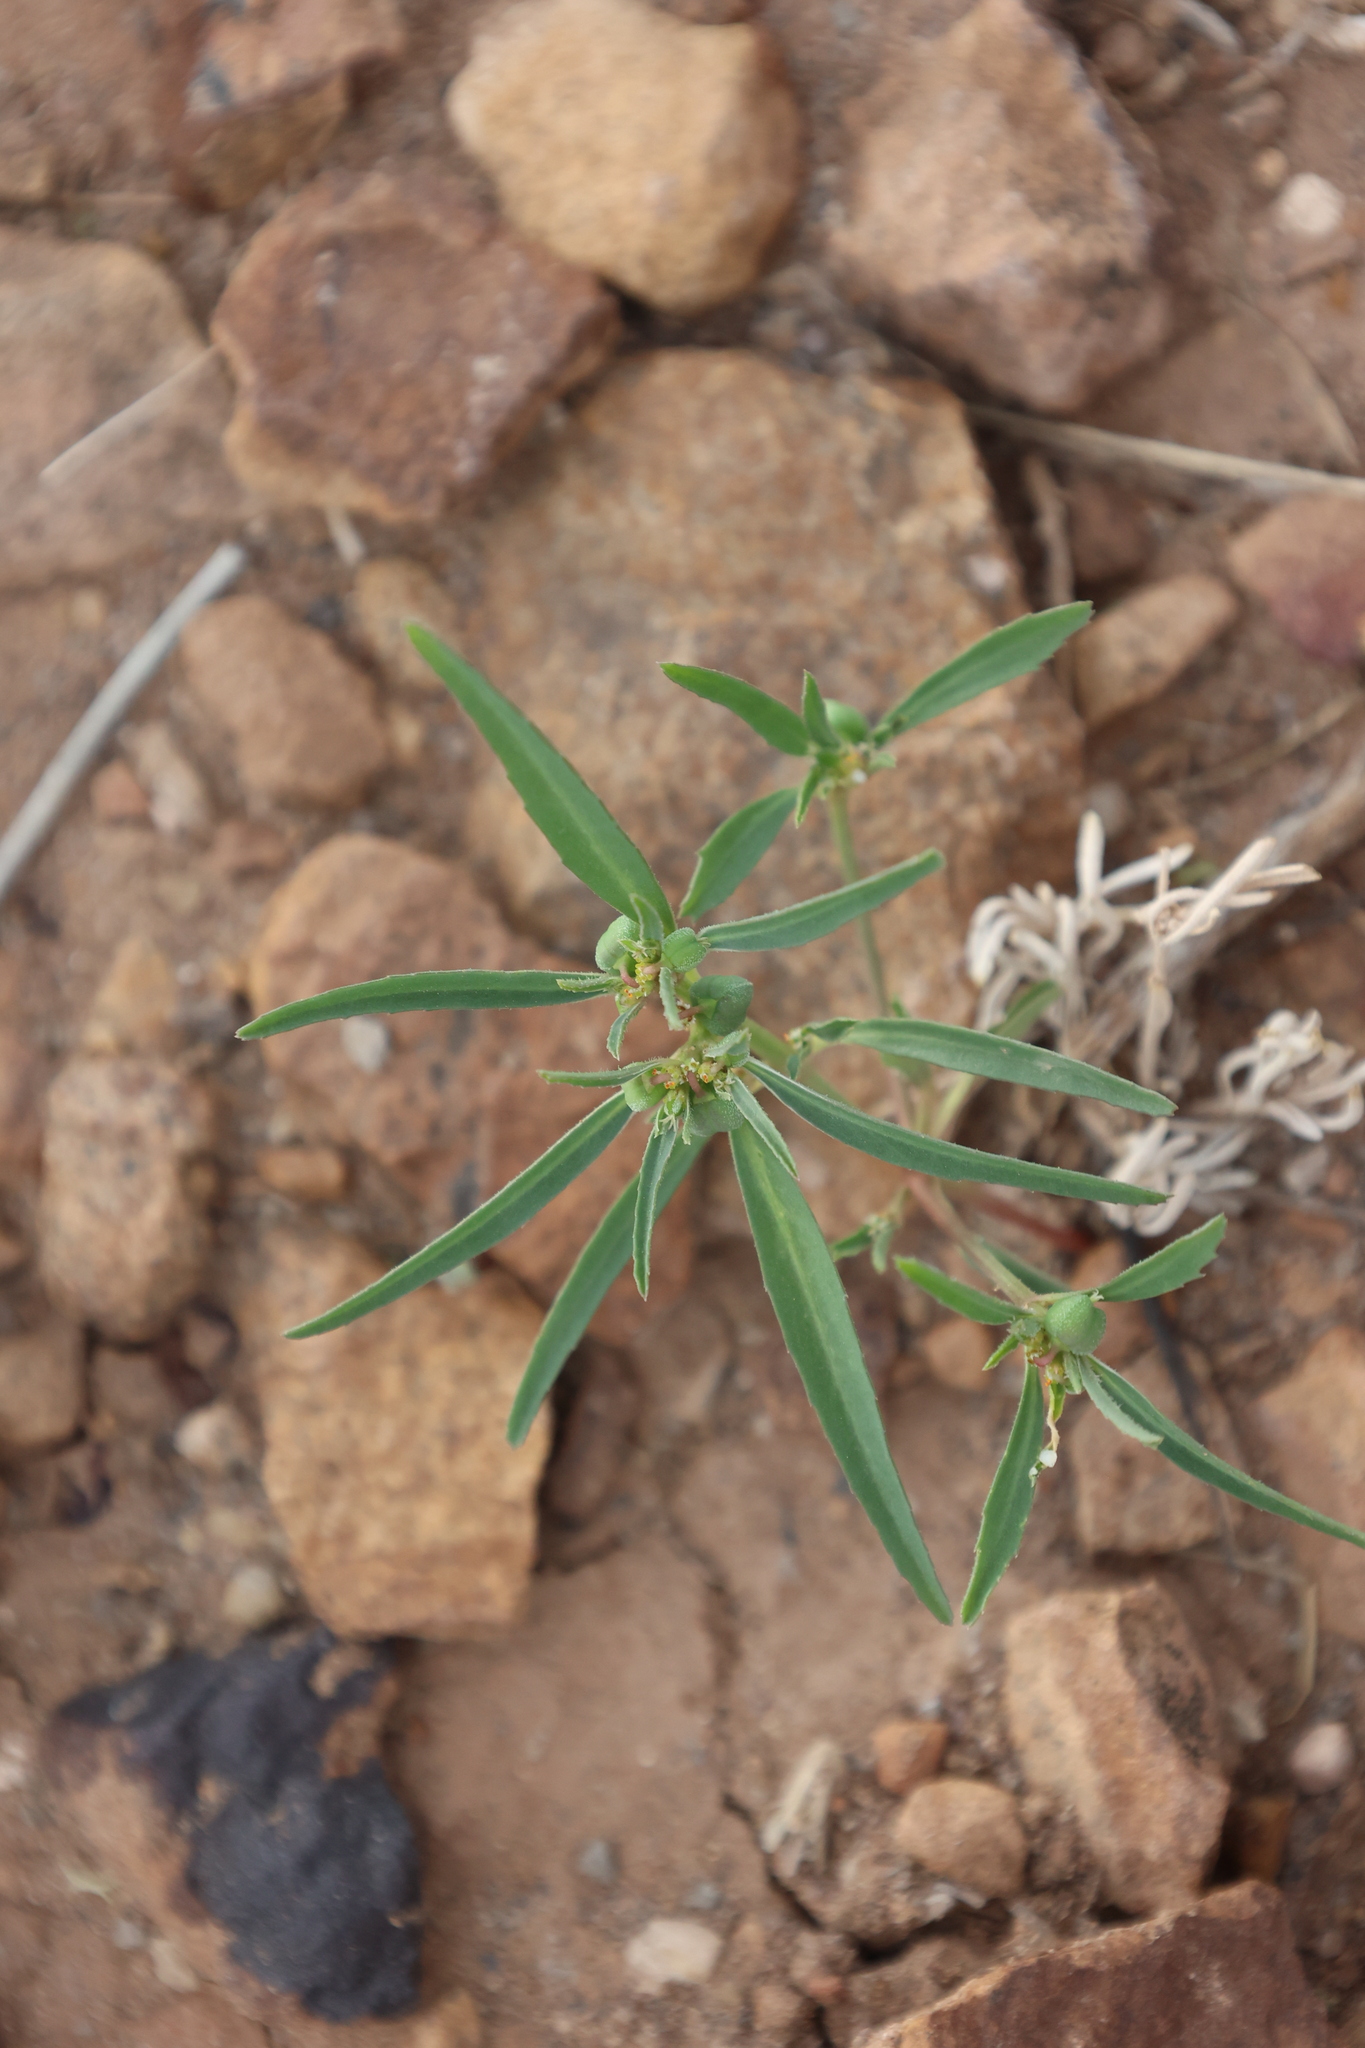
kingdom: Plantae
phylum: Tracheophyta
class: Magnoliopsida
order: Malpighiales
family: Euphorbiaceae
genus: Euphorbia
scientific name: Euphorbia exstipulata
